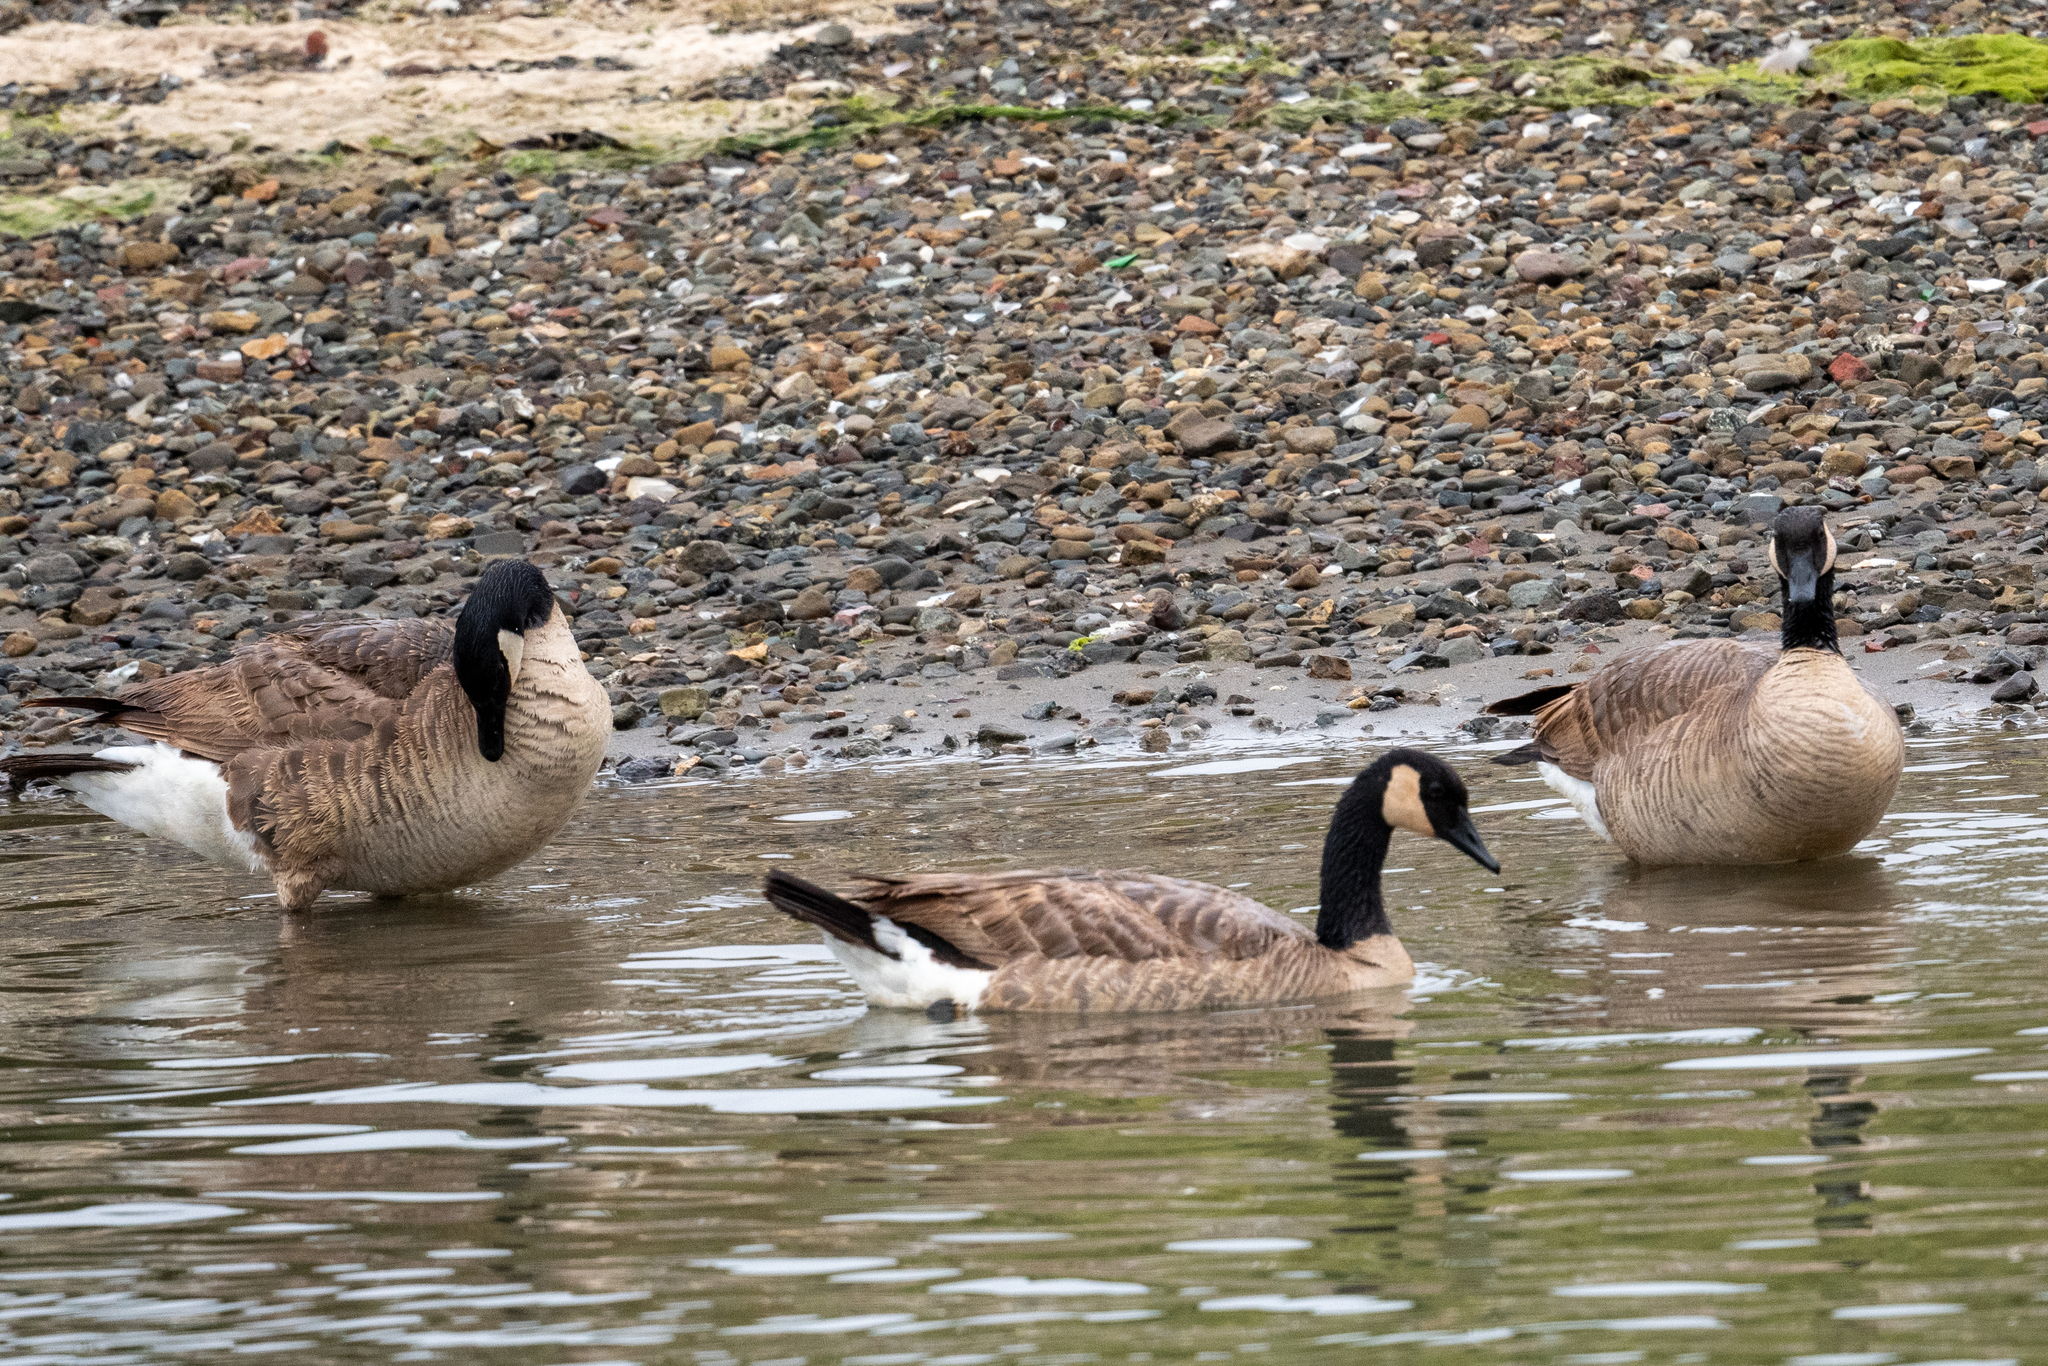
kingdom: Animalia
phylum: Chordata
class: Aves
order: Anseriformes
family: Anatidae
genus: Branta
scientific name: Branta canadensis
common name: Canada goose
